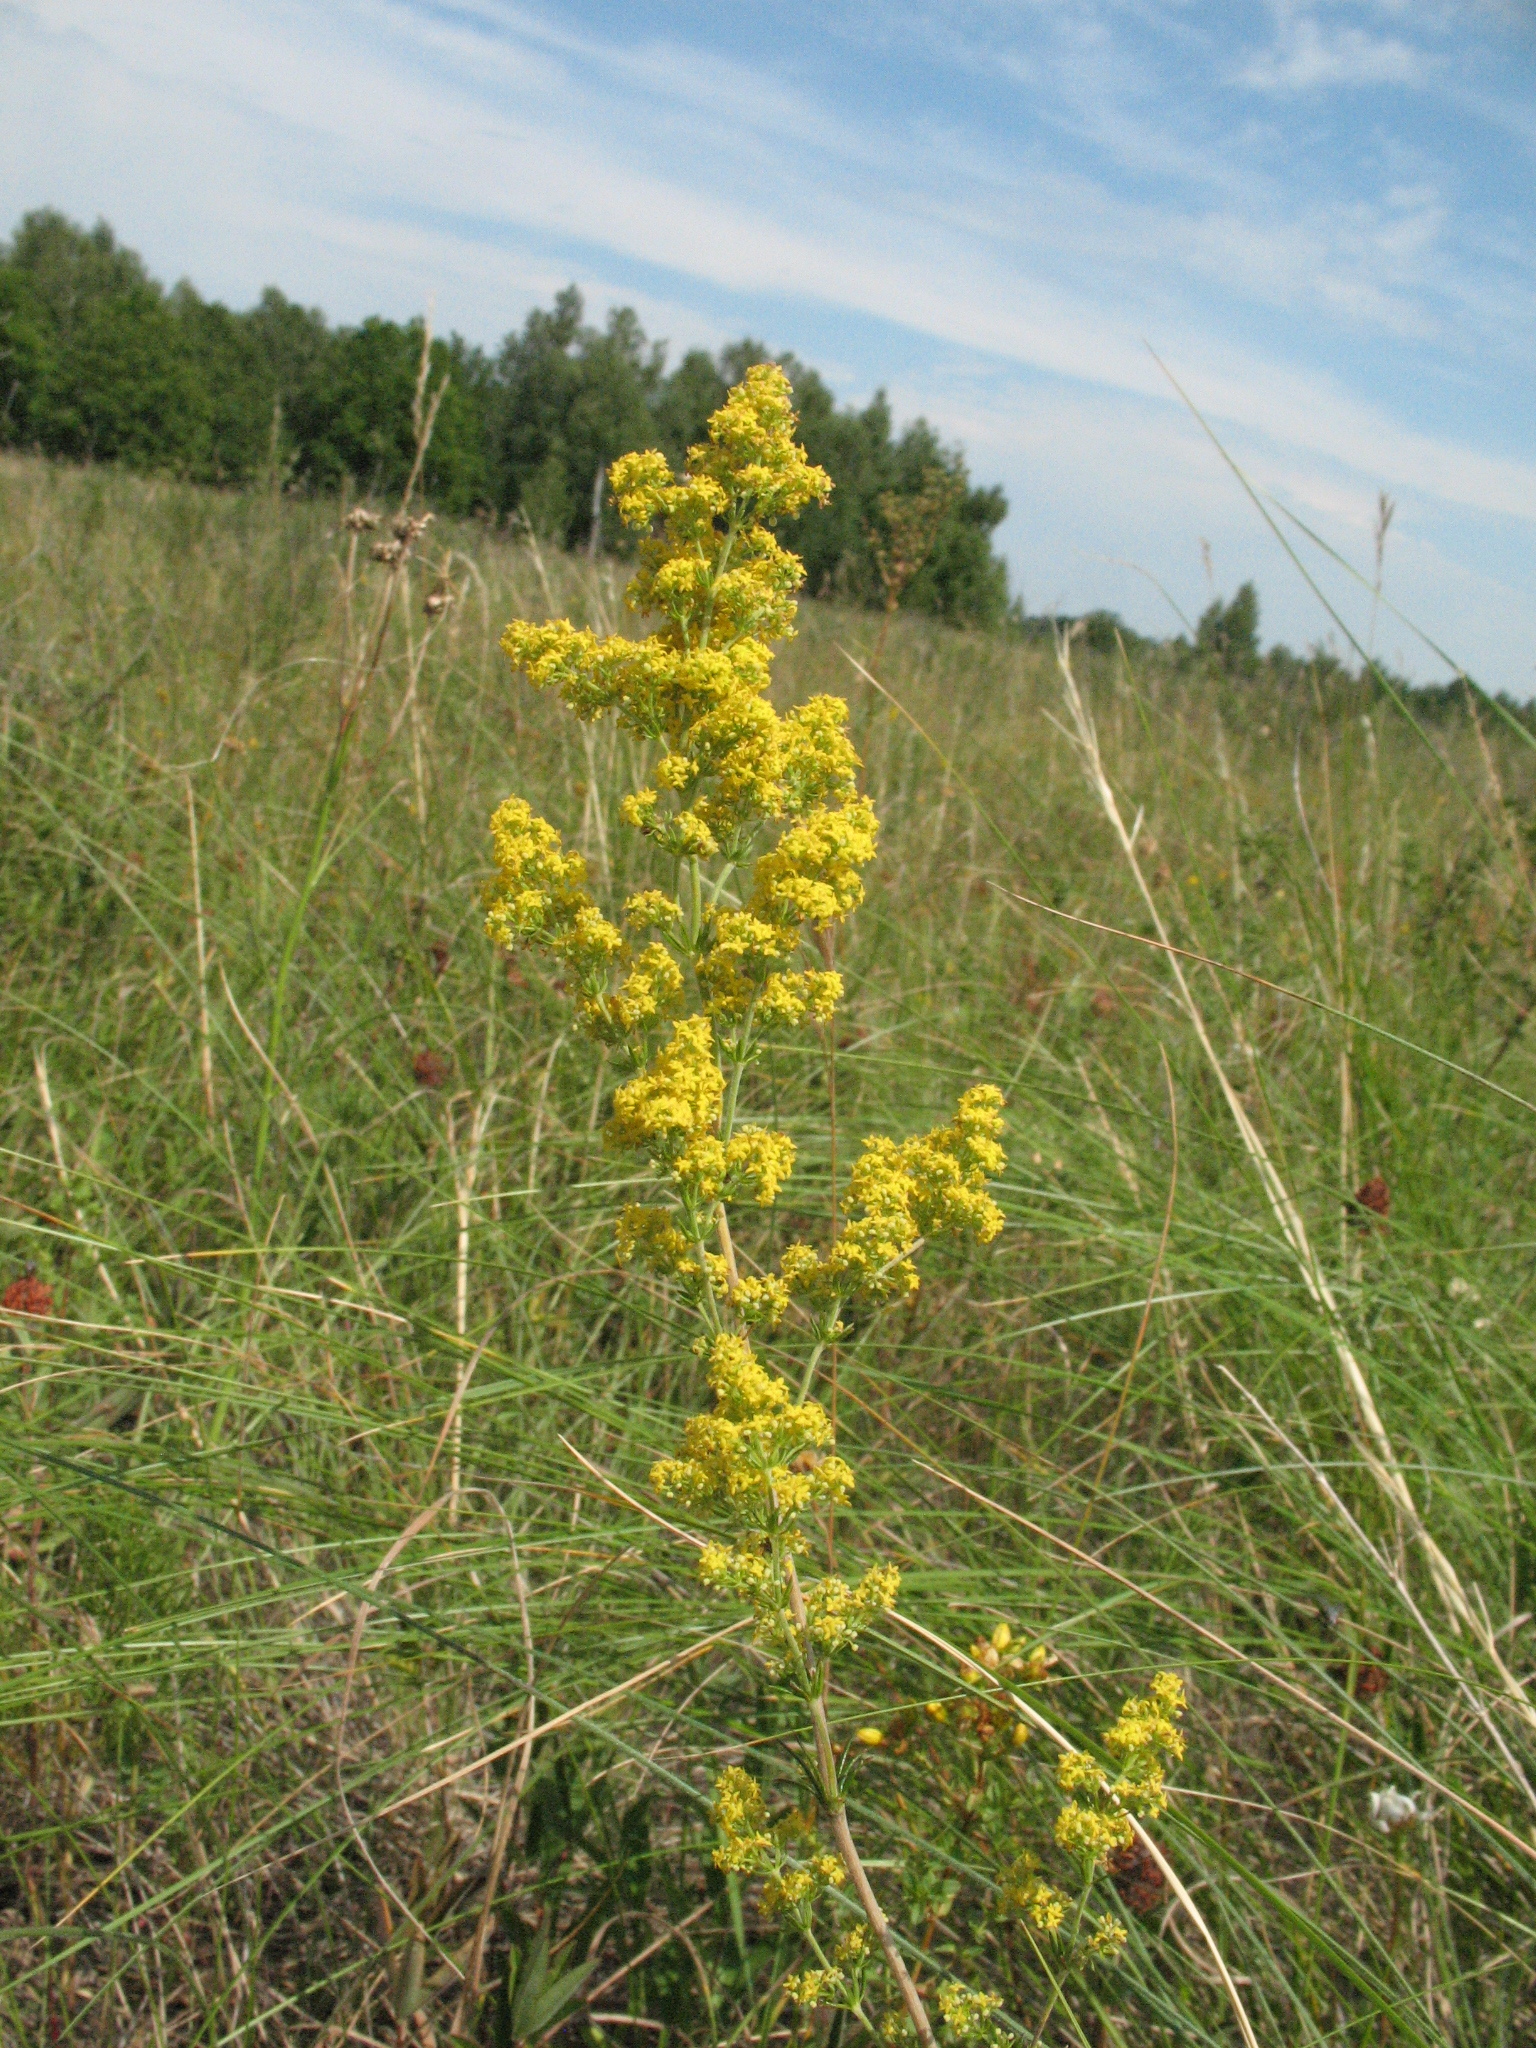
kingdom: Plantae
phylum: Tracheophyta
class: Magnoliopsida
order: Gentianales
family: Rubiaceae
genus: Galium
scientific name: Galium verum
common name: Lady's bedstraw
